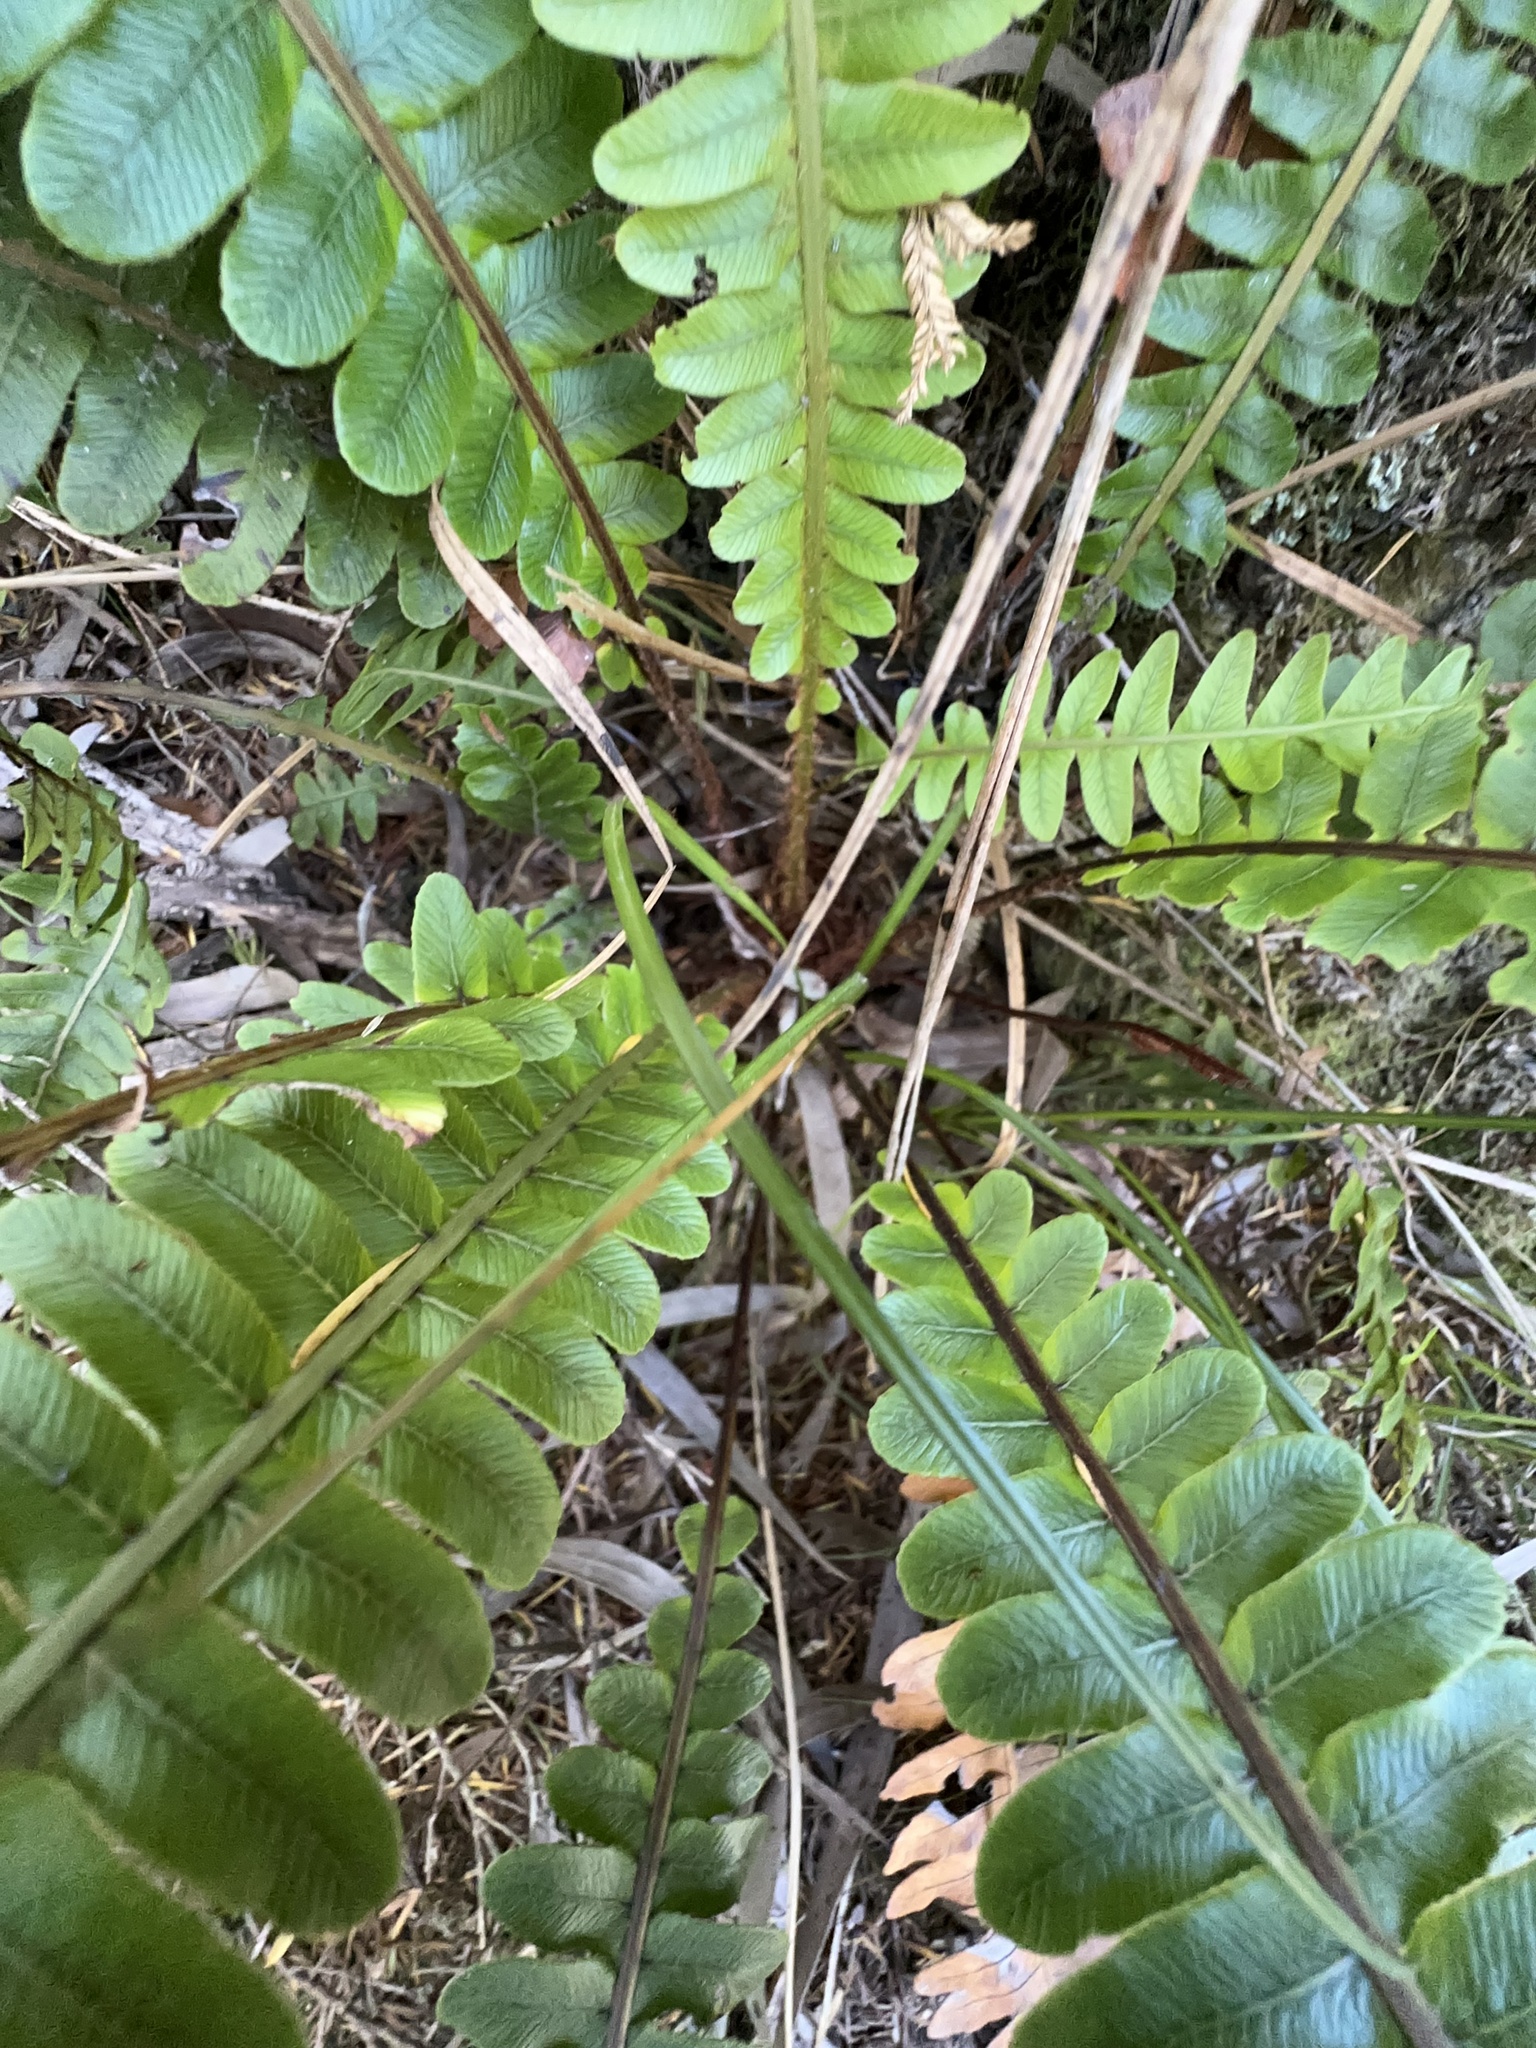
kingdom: Plantae
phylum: Tracheophyta
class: Polypodiopsida
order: Polypodiales
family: Blechnaceae
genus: Austroblechnum
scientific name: Austroblechnum lanceolatum
